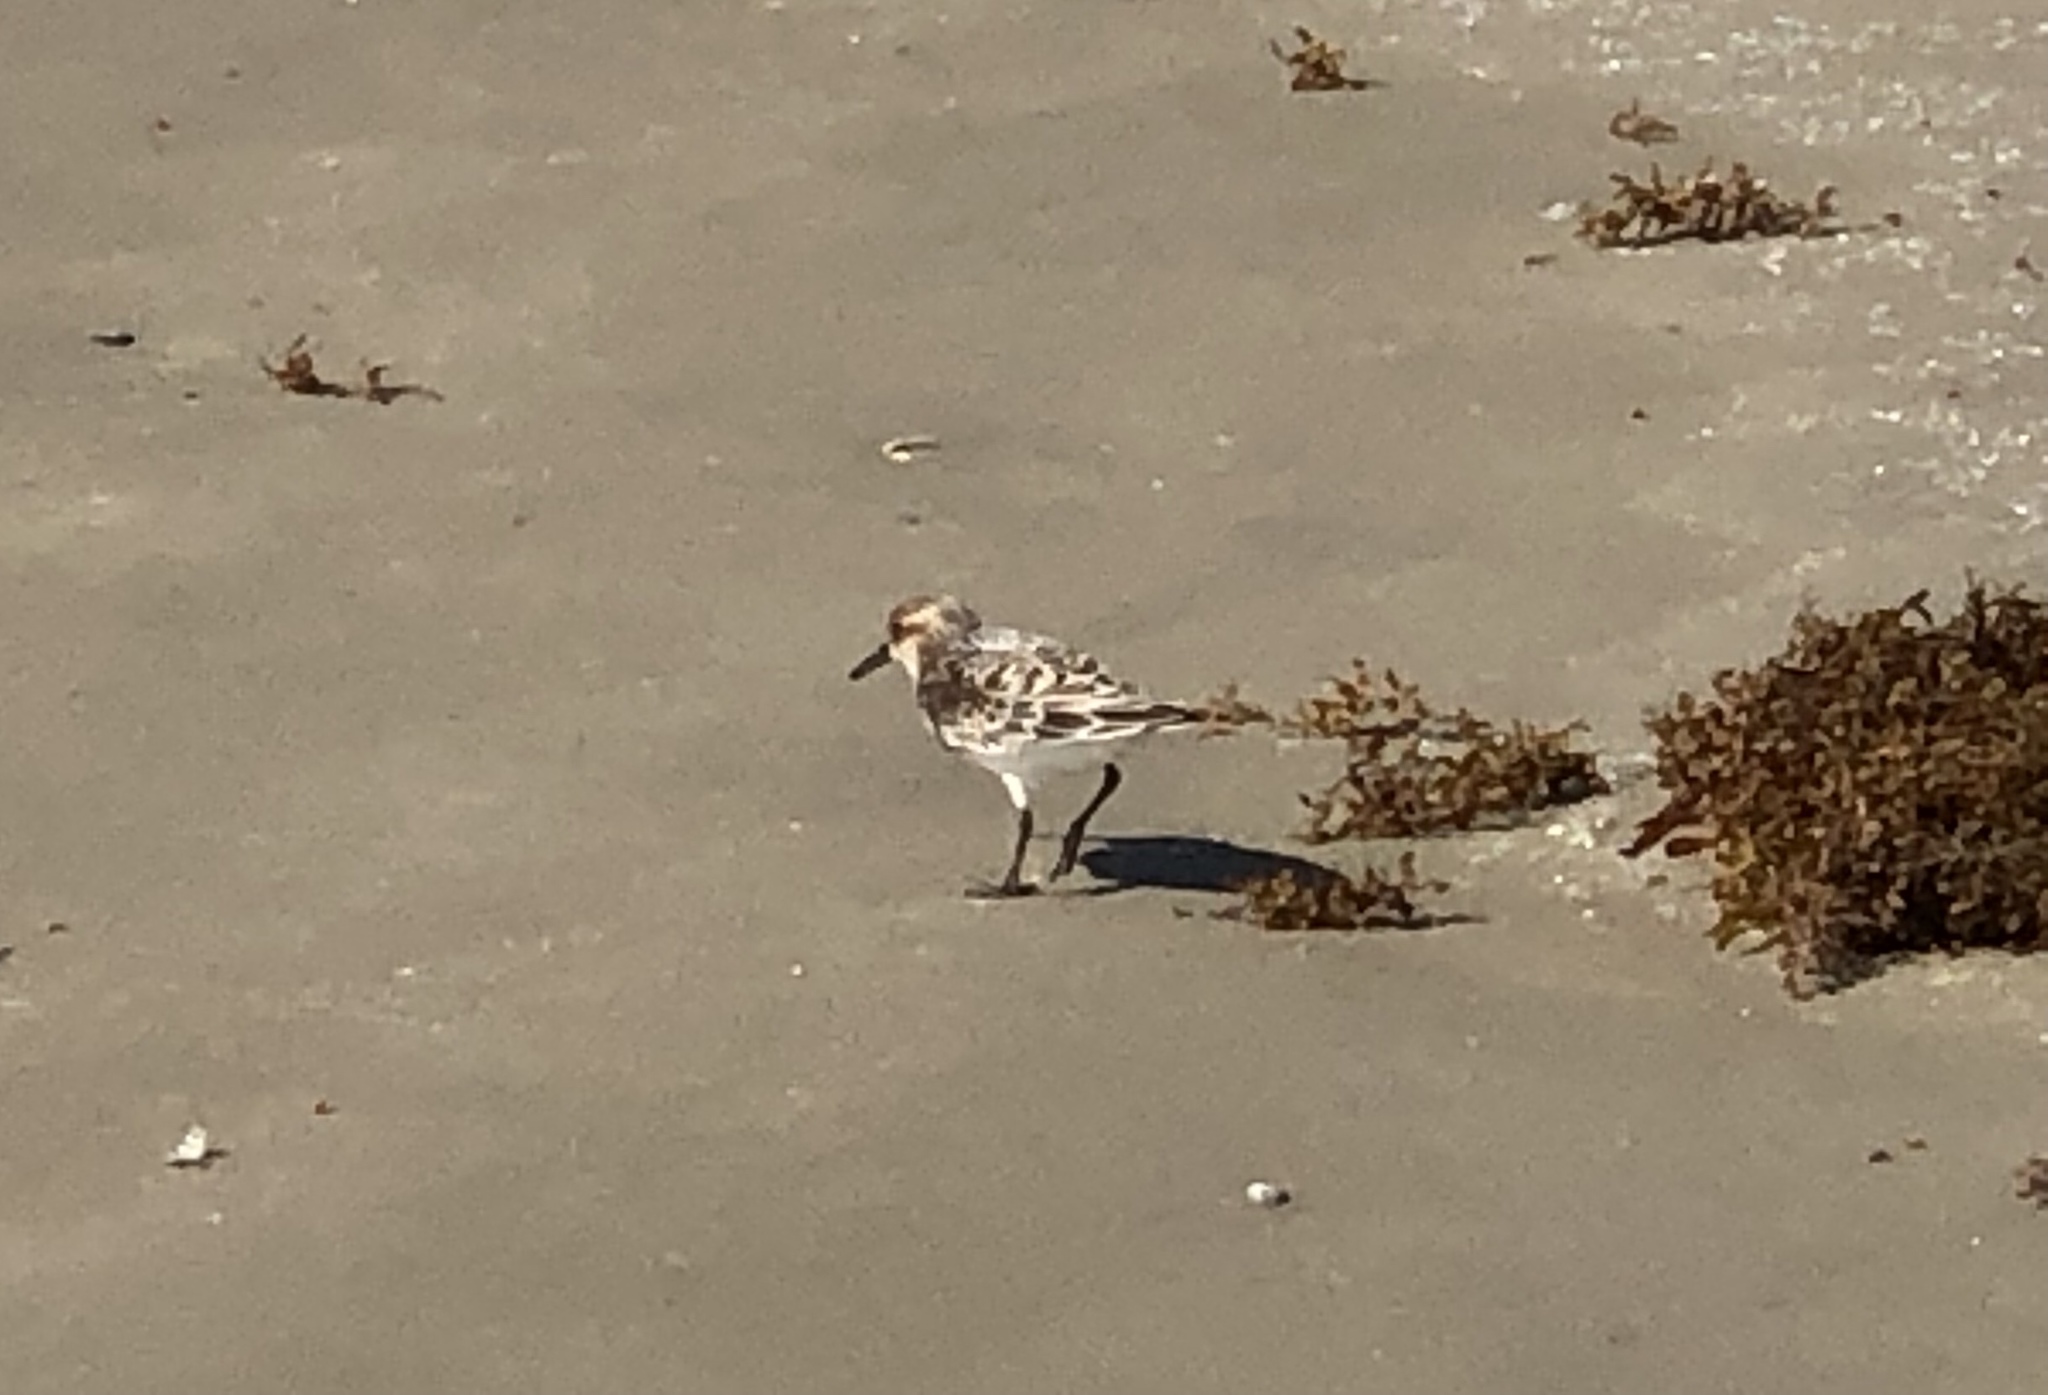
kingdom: Animalia
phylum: Chordata
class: Aves
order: Charadriiformes
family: Scolopacidae
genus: Calidris
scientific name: Calidris alba
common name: Sanderling
